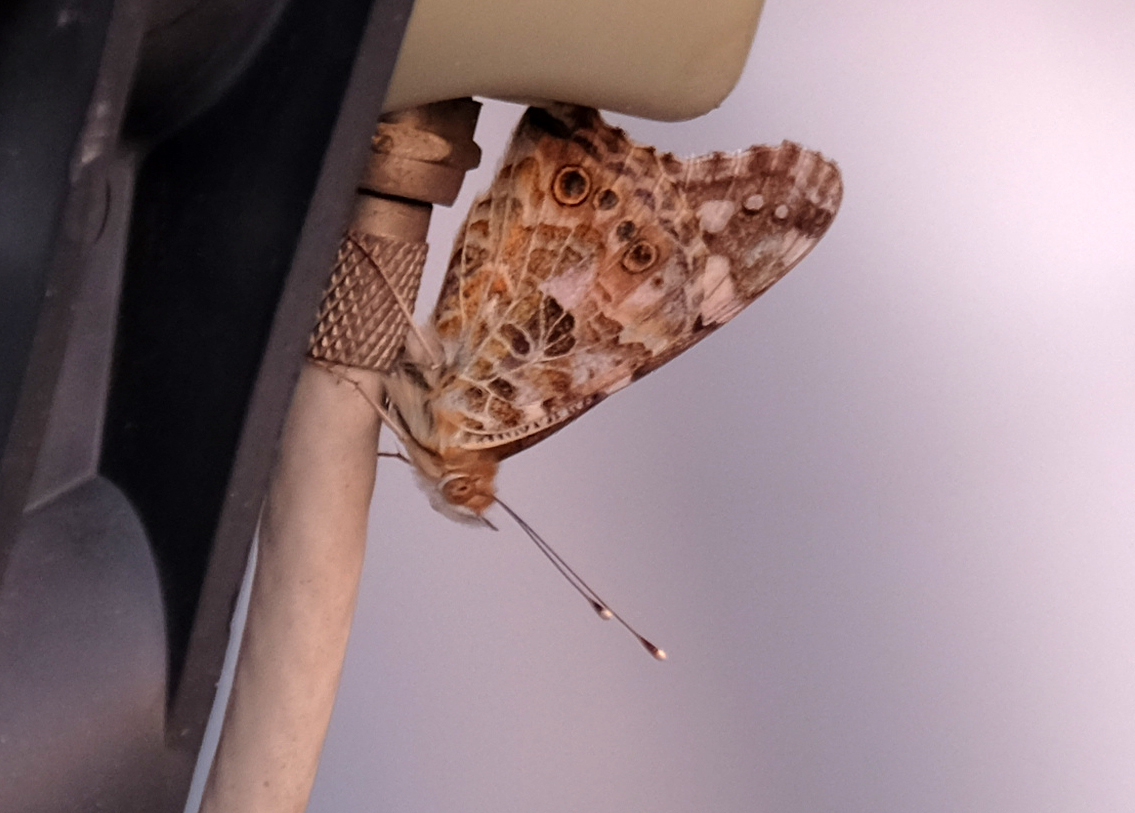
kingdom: Animalia
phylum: Arthropoda
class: Insecta
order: Lepidoptera
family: Nymphalidae
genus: Vanessa
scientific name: Vanessa cardui
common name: Painted lady
